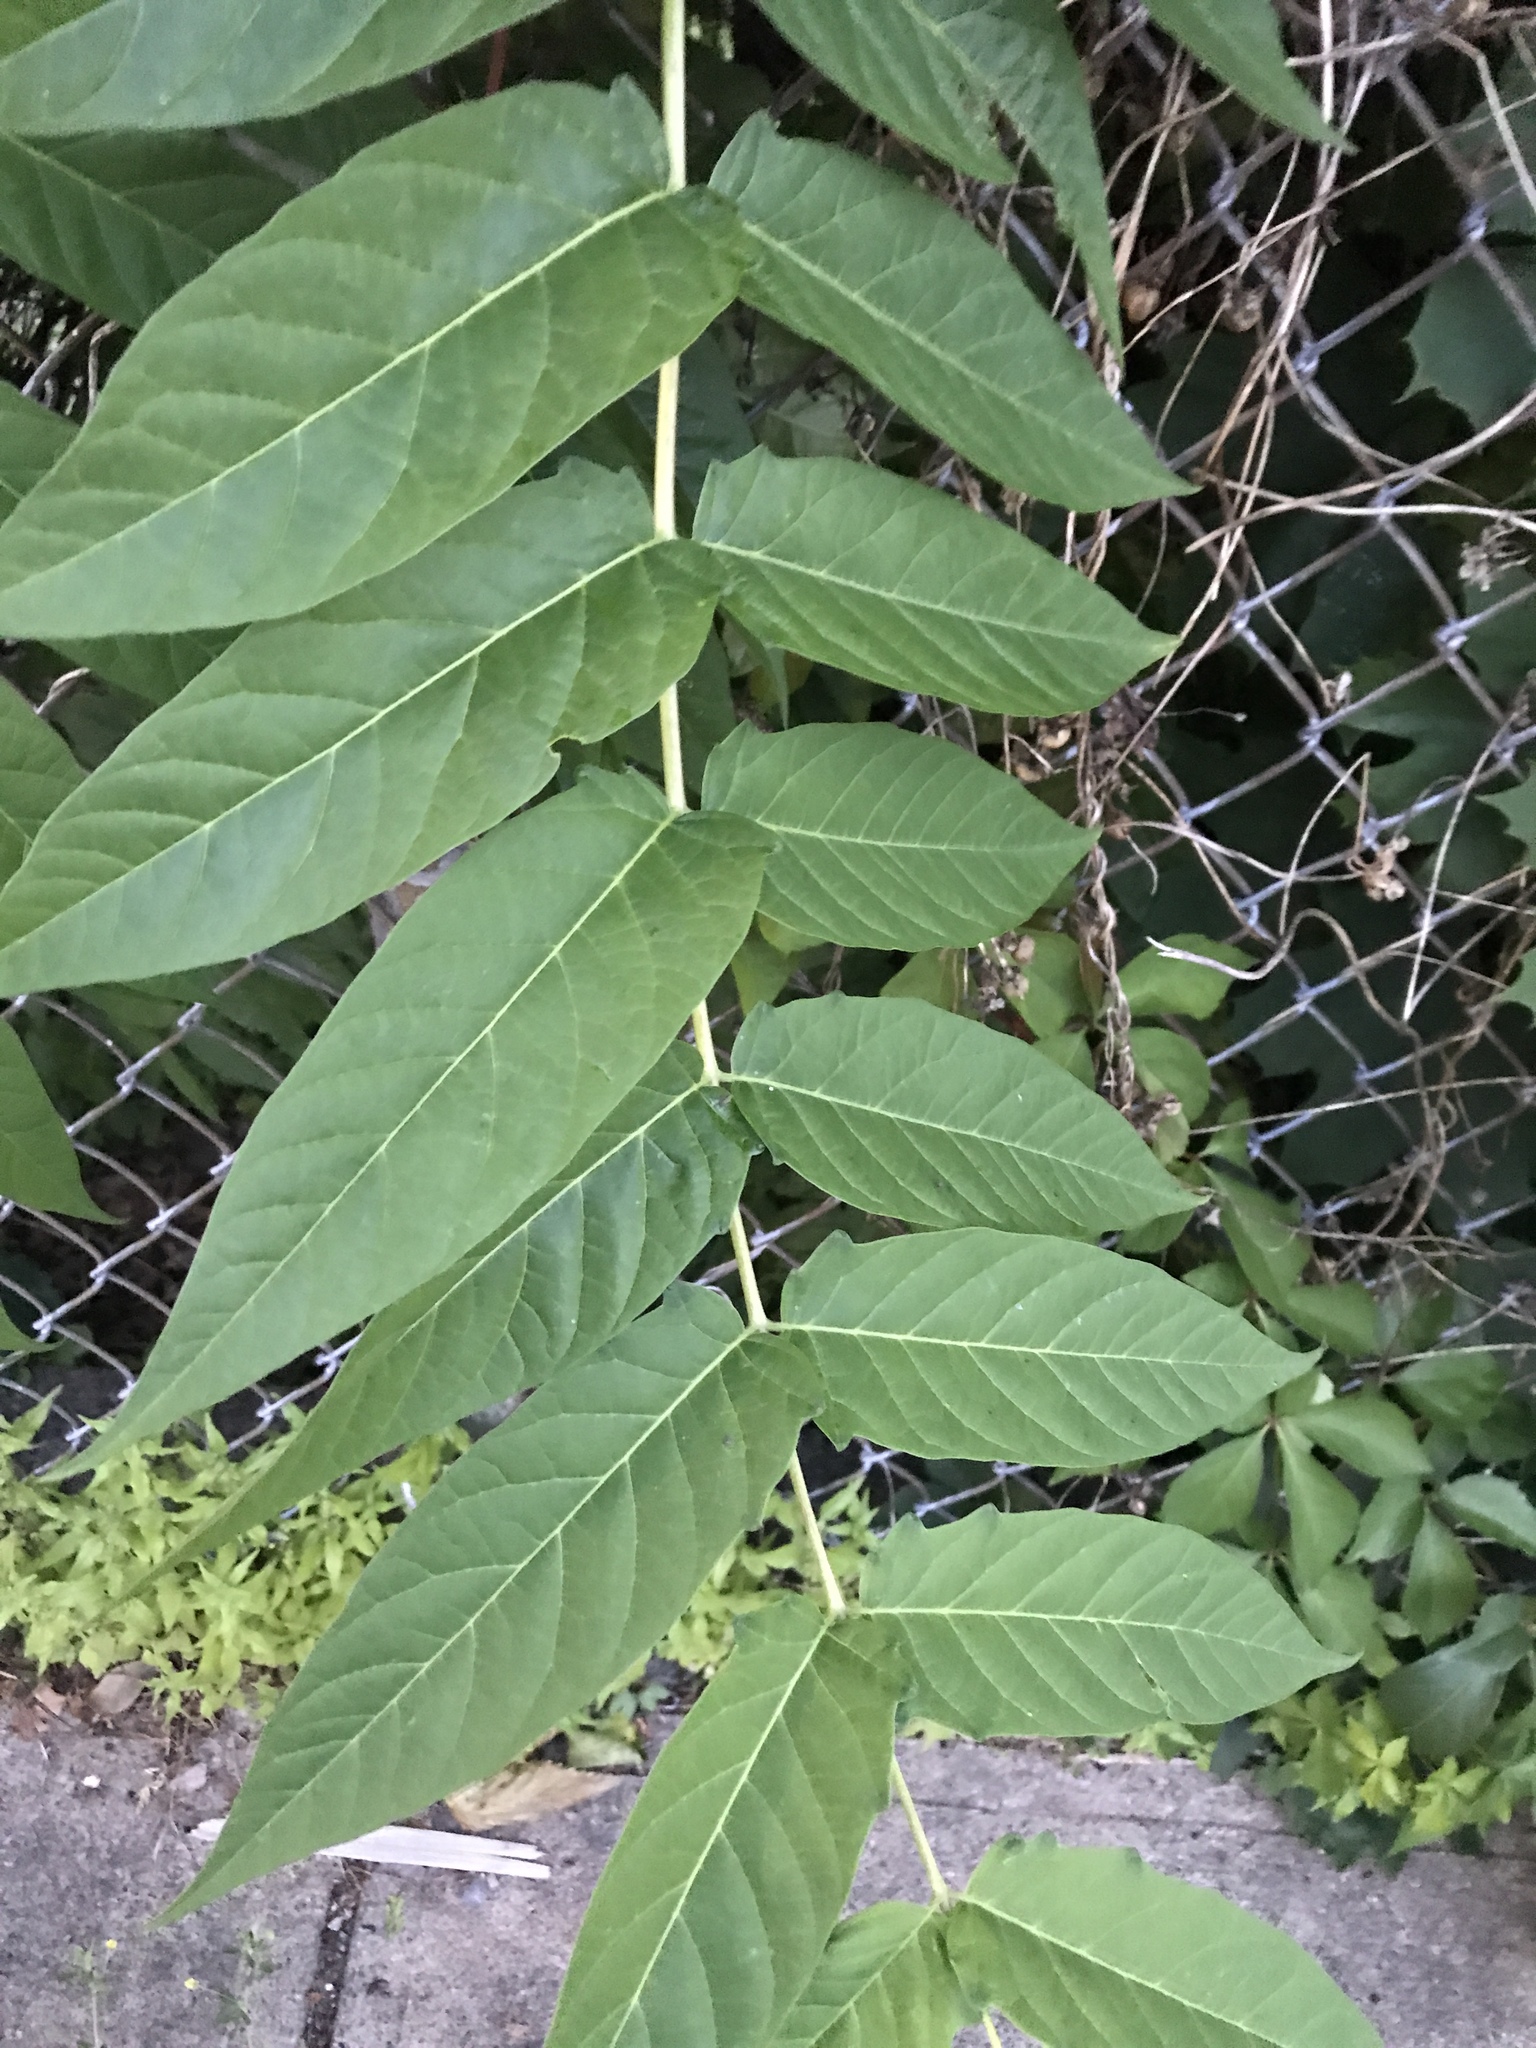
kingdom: Plantae
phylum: Tracheophyta
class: Magnoliopsida
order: Sapindales
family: Simaroubaceae
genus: Ailanthus
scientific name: Ailanthus altissima
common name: Tree-of-heaven
